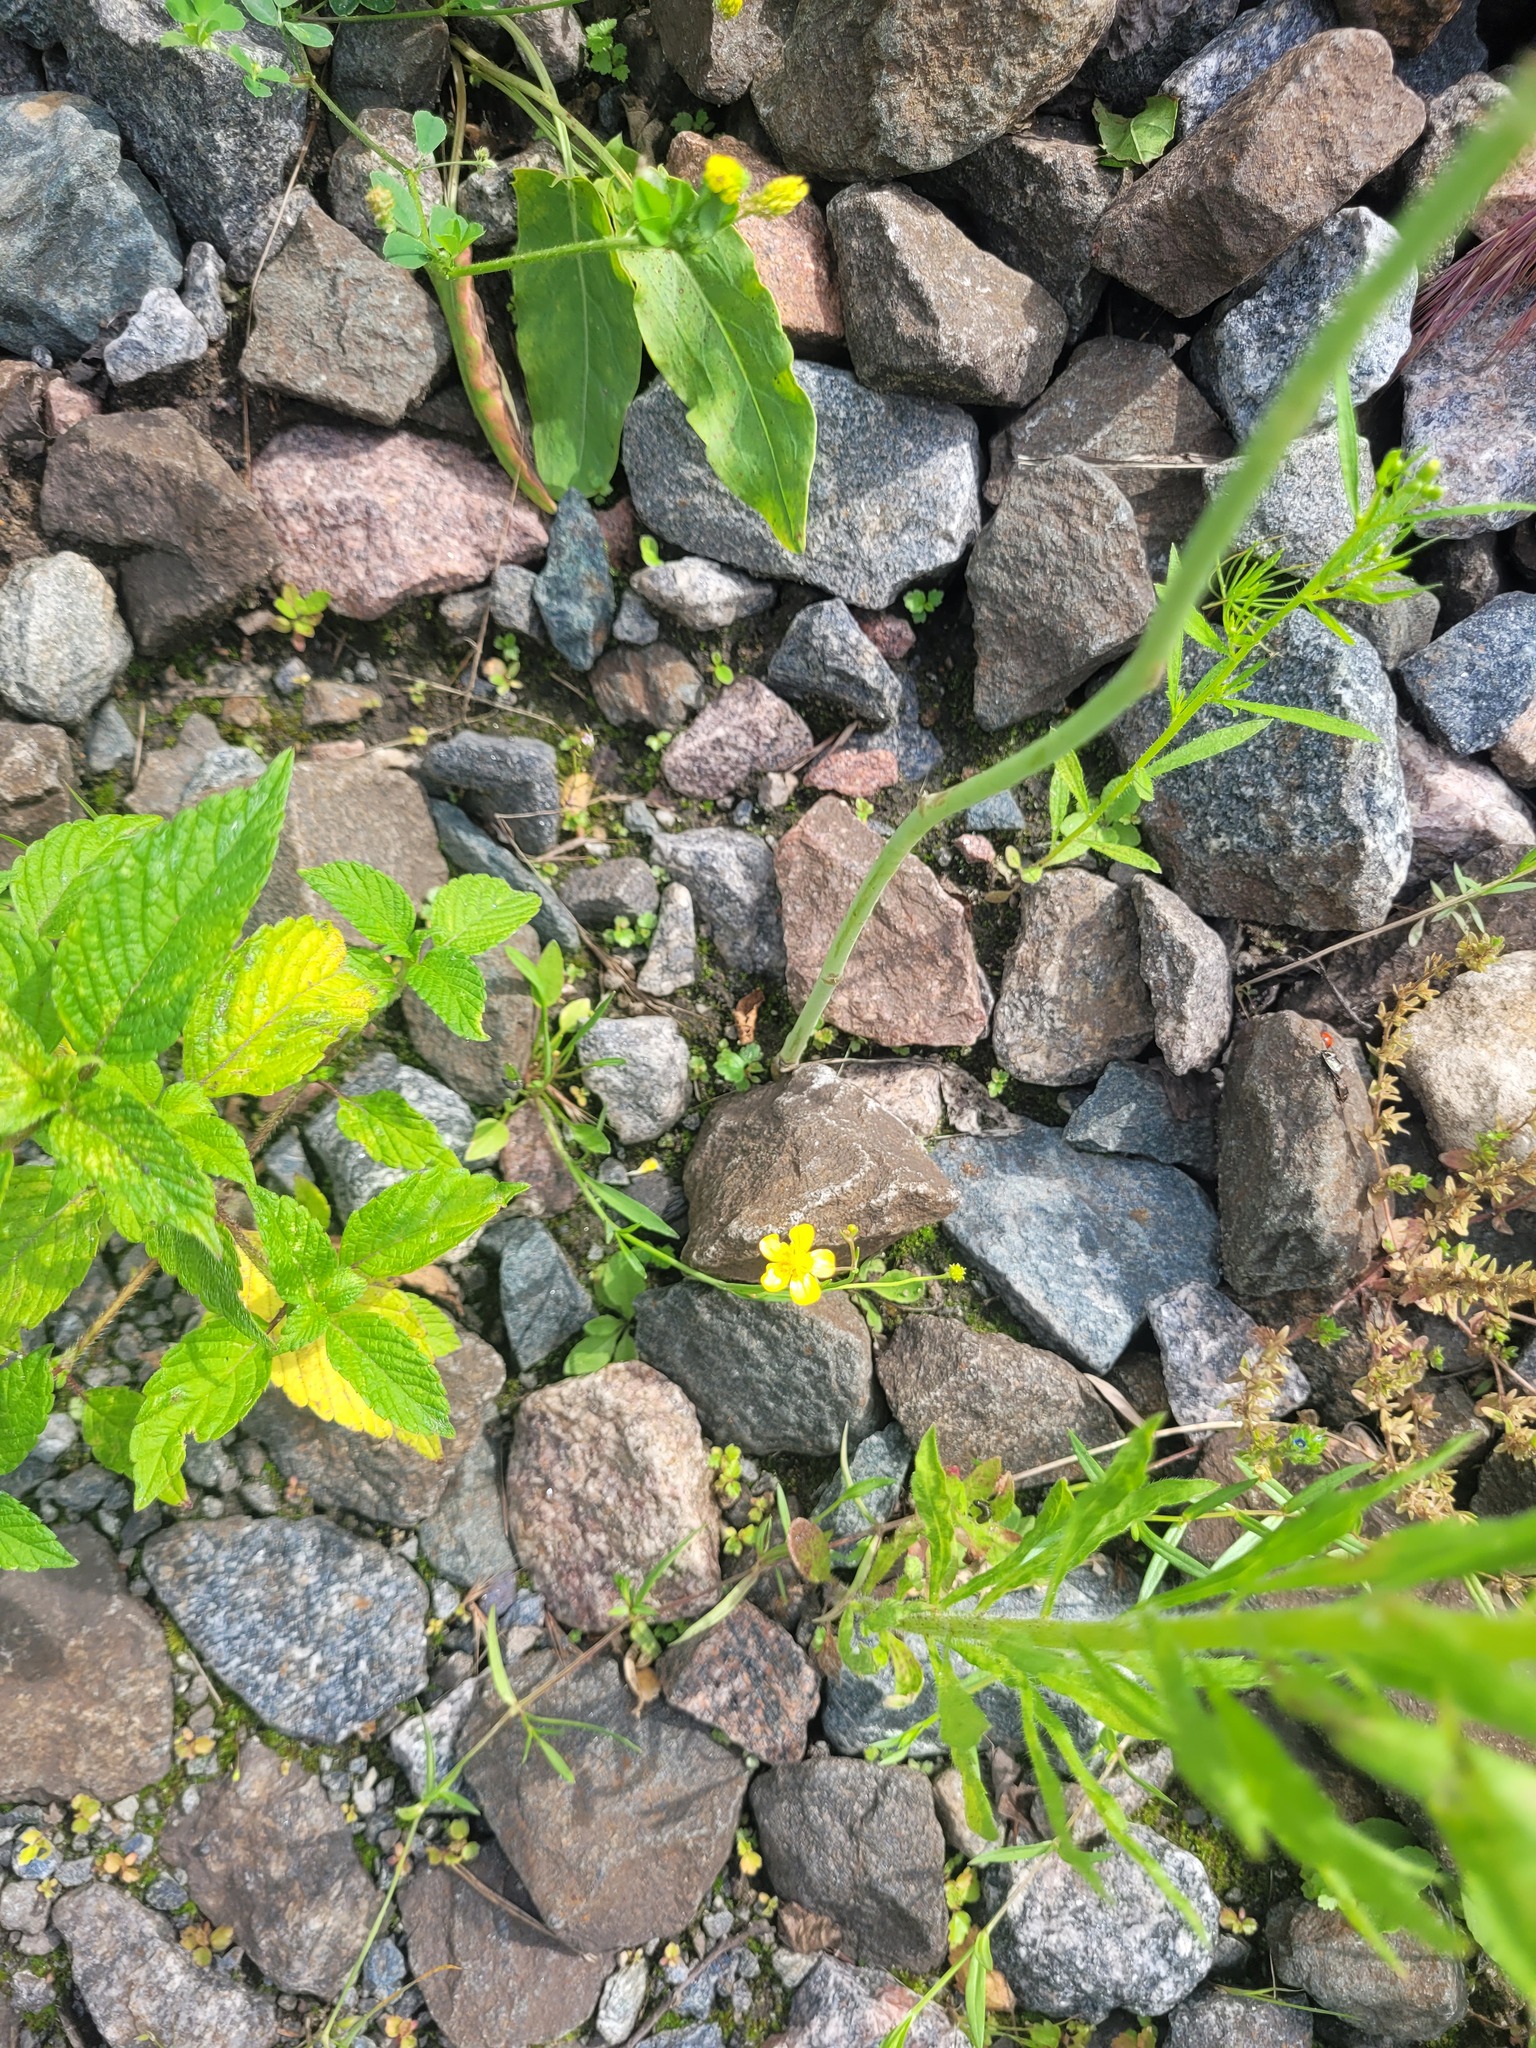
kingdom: Plantae
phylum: Tracheophyta
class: Magnoliopsida
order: Ranunculales
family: Ranunculaceae
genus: Ranunculus
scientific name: Ranunculus flammula
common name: Lesser spearwort
